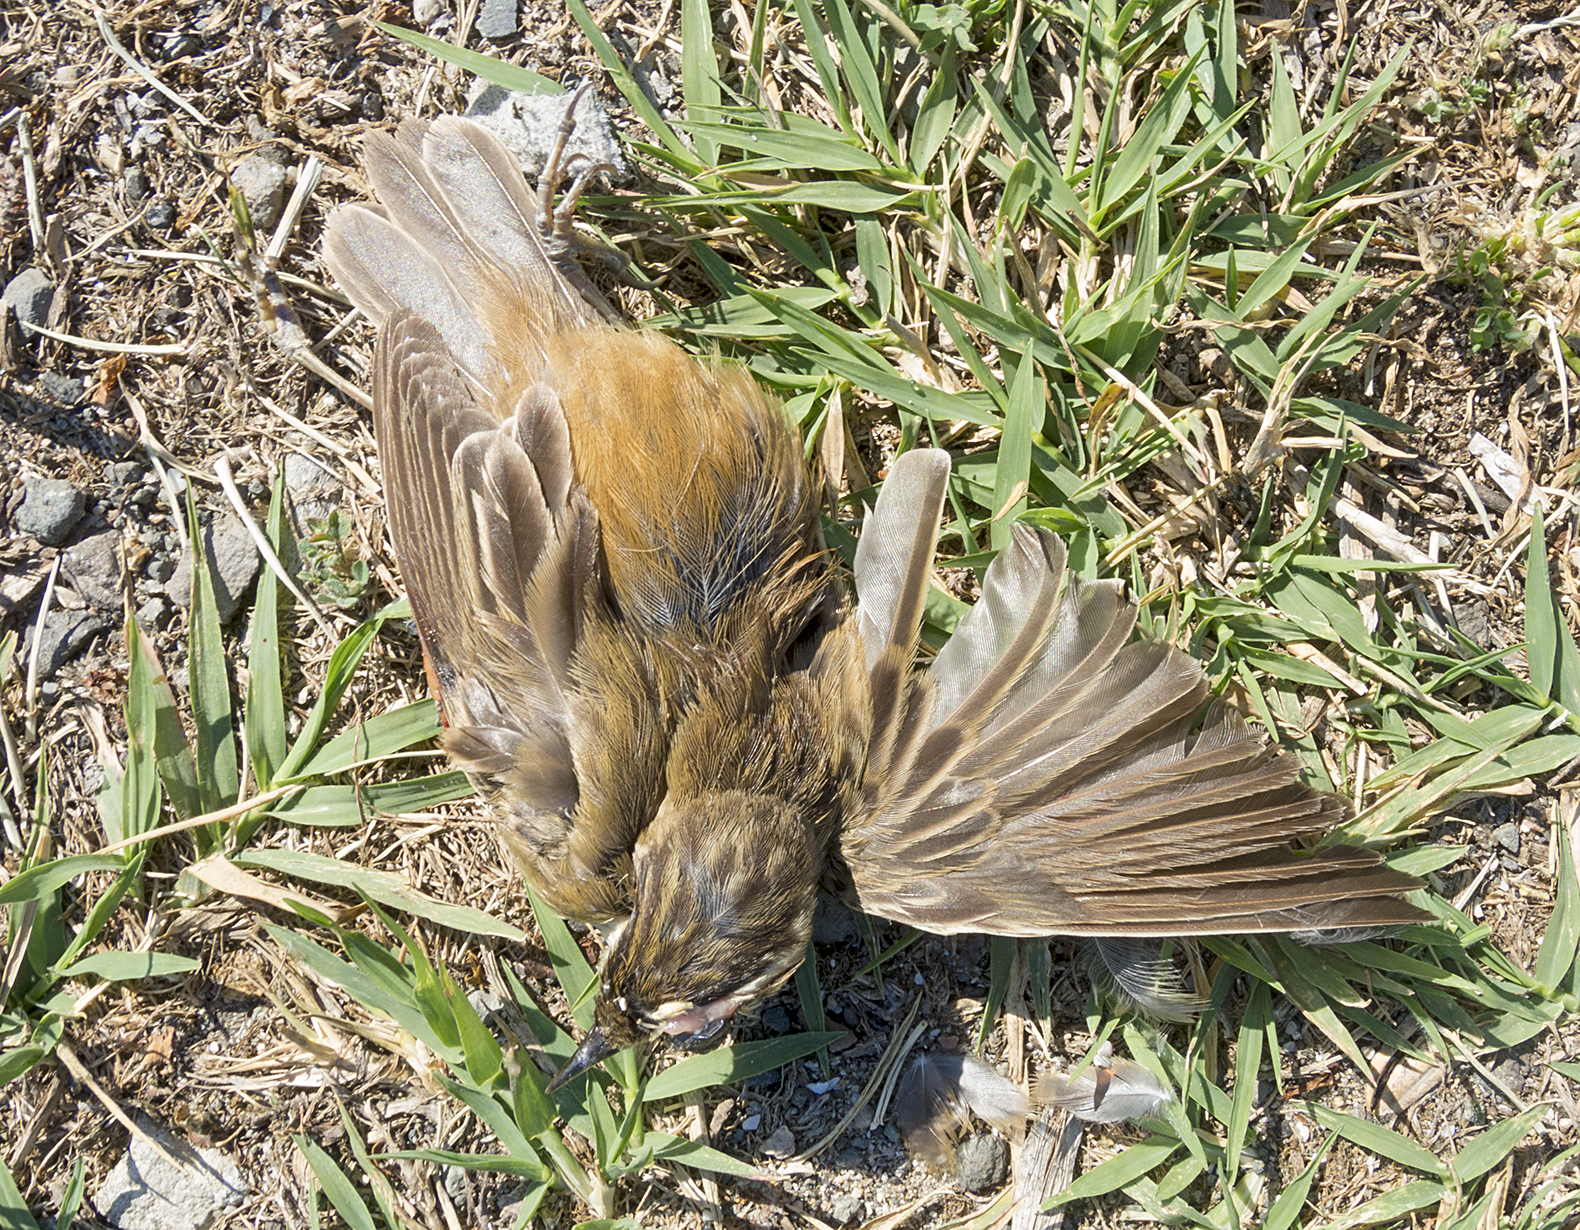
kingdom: Animalia
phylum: Chordata
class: Aves
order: Passeriformes
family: Acrocephalidae
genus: Acrocephalus
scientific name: Acrocephalus schoenobaenus
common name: Sedge warbler
